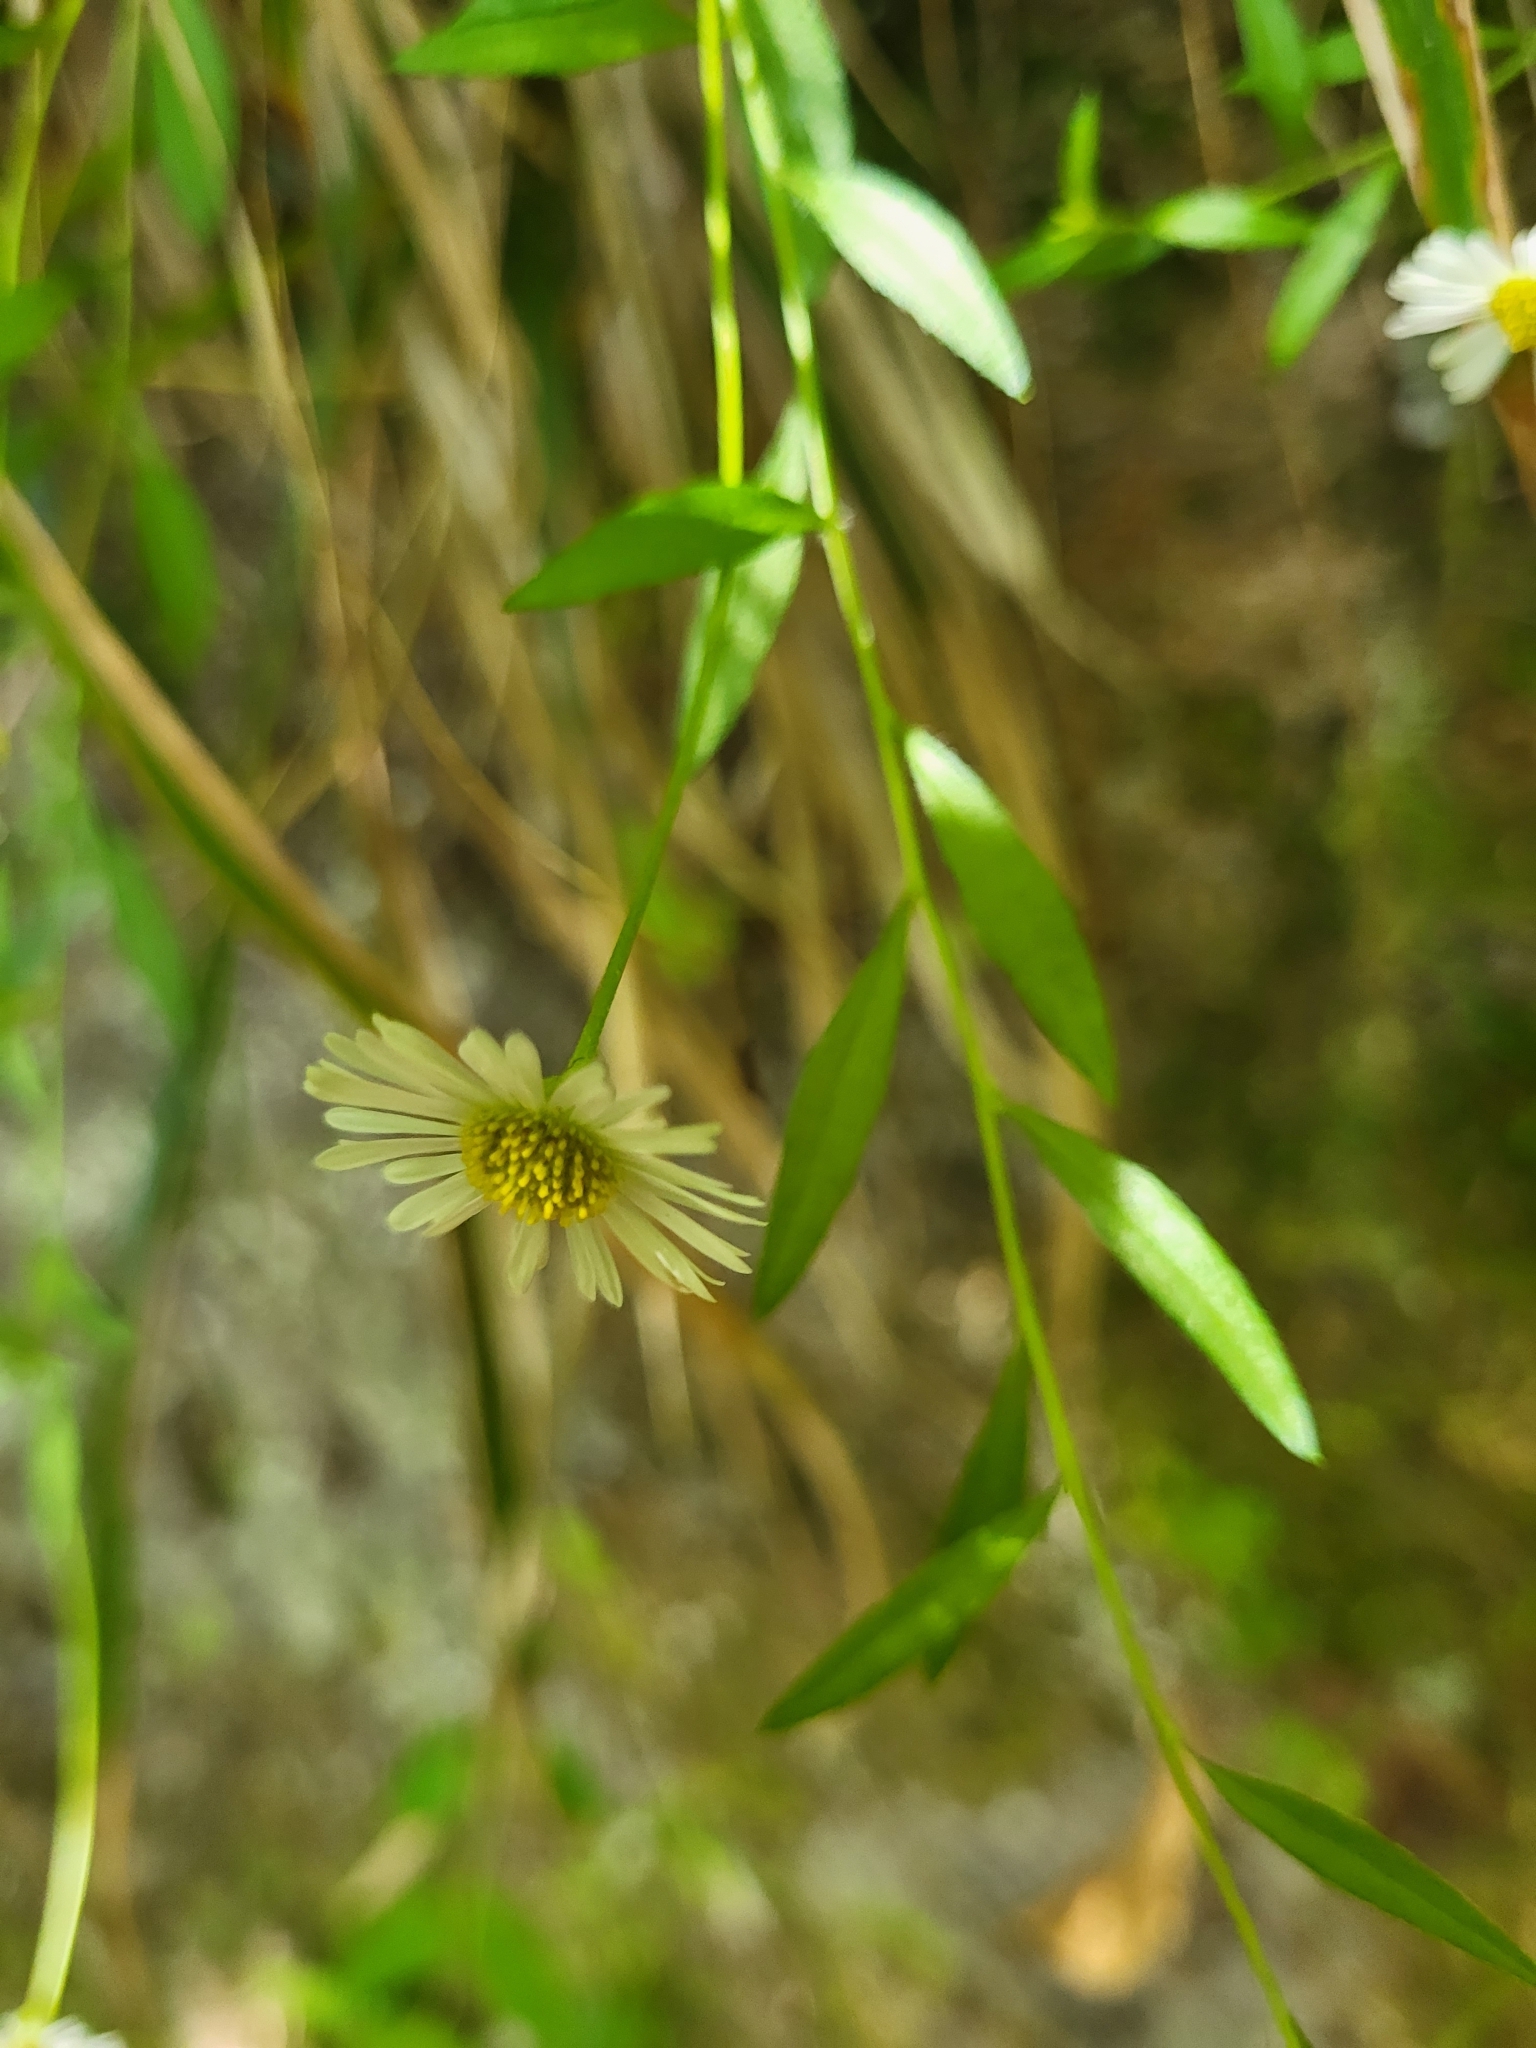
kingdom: Plantae
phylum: Tracheophyta
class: Magnoliopsida
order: Asterales
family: Asteraceae
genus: Erigeron
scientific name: Erigeron karvinskianus
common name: Mexican fleabane
